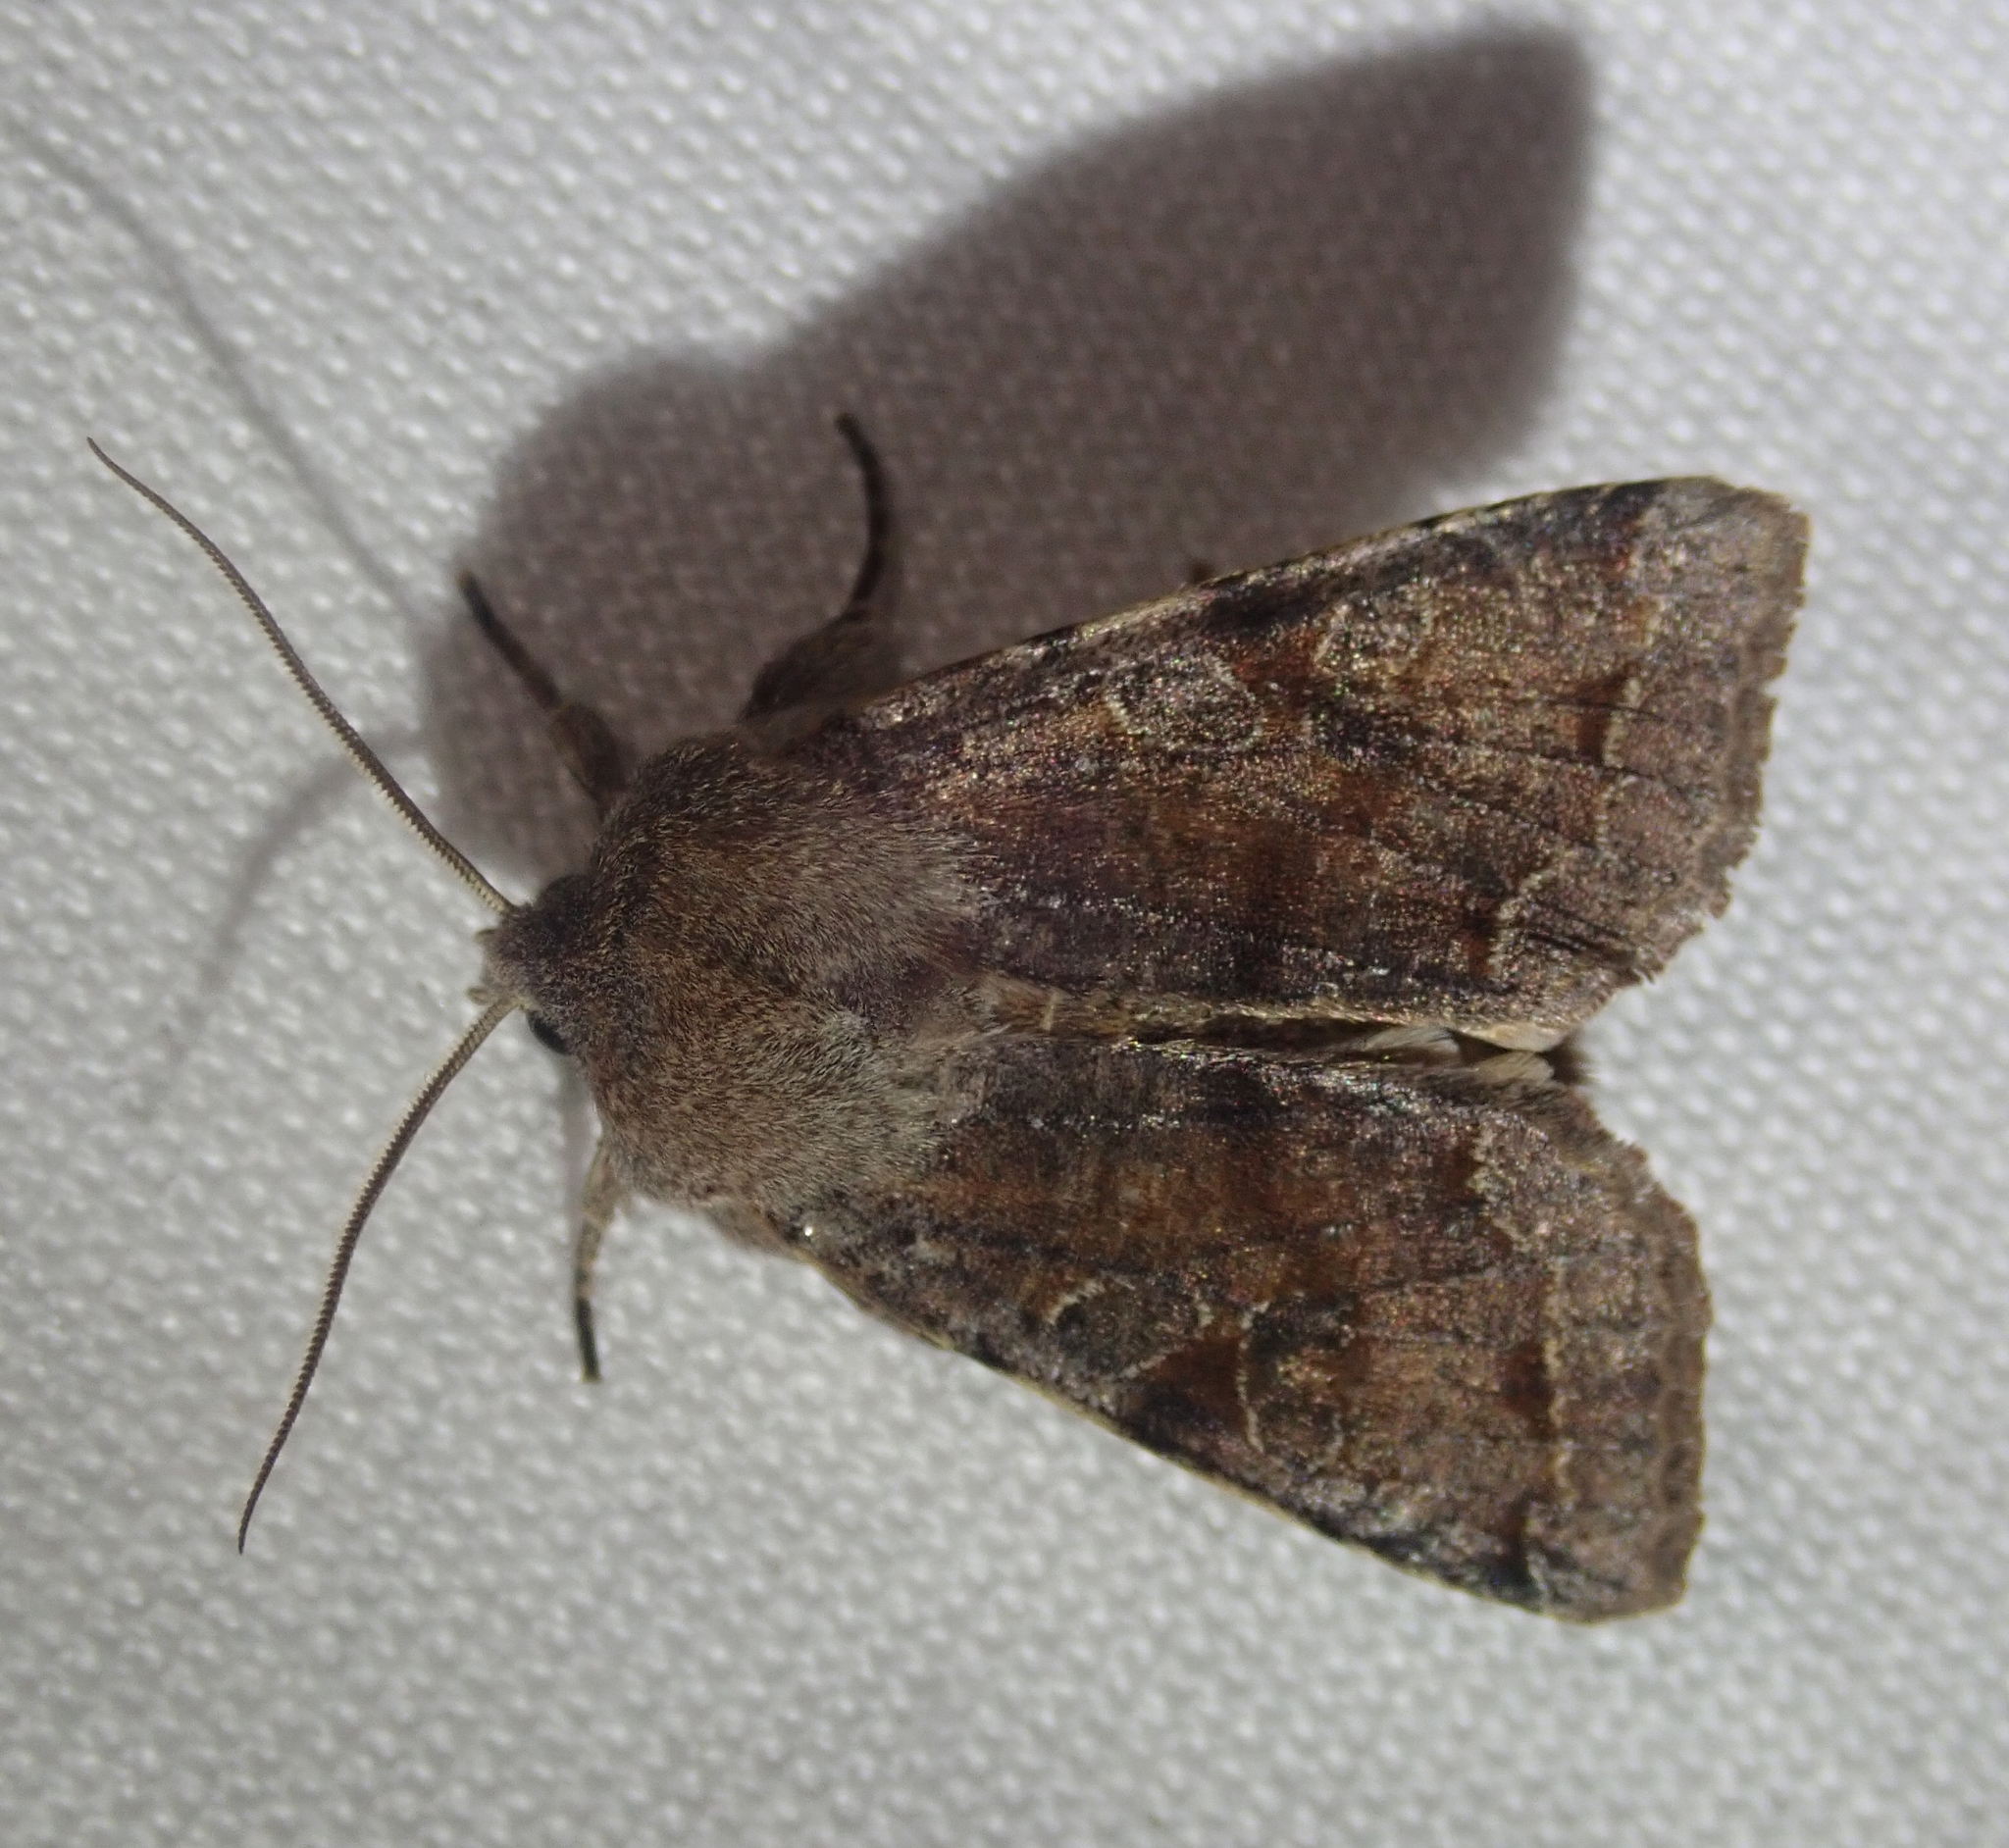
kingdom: Animalia
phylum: Arthropoda
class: Insecta
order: Lepidoptera
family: Noctuidae
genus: Orthosia
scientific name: Orthosia incerta
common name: Clouded drab
